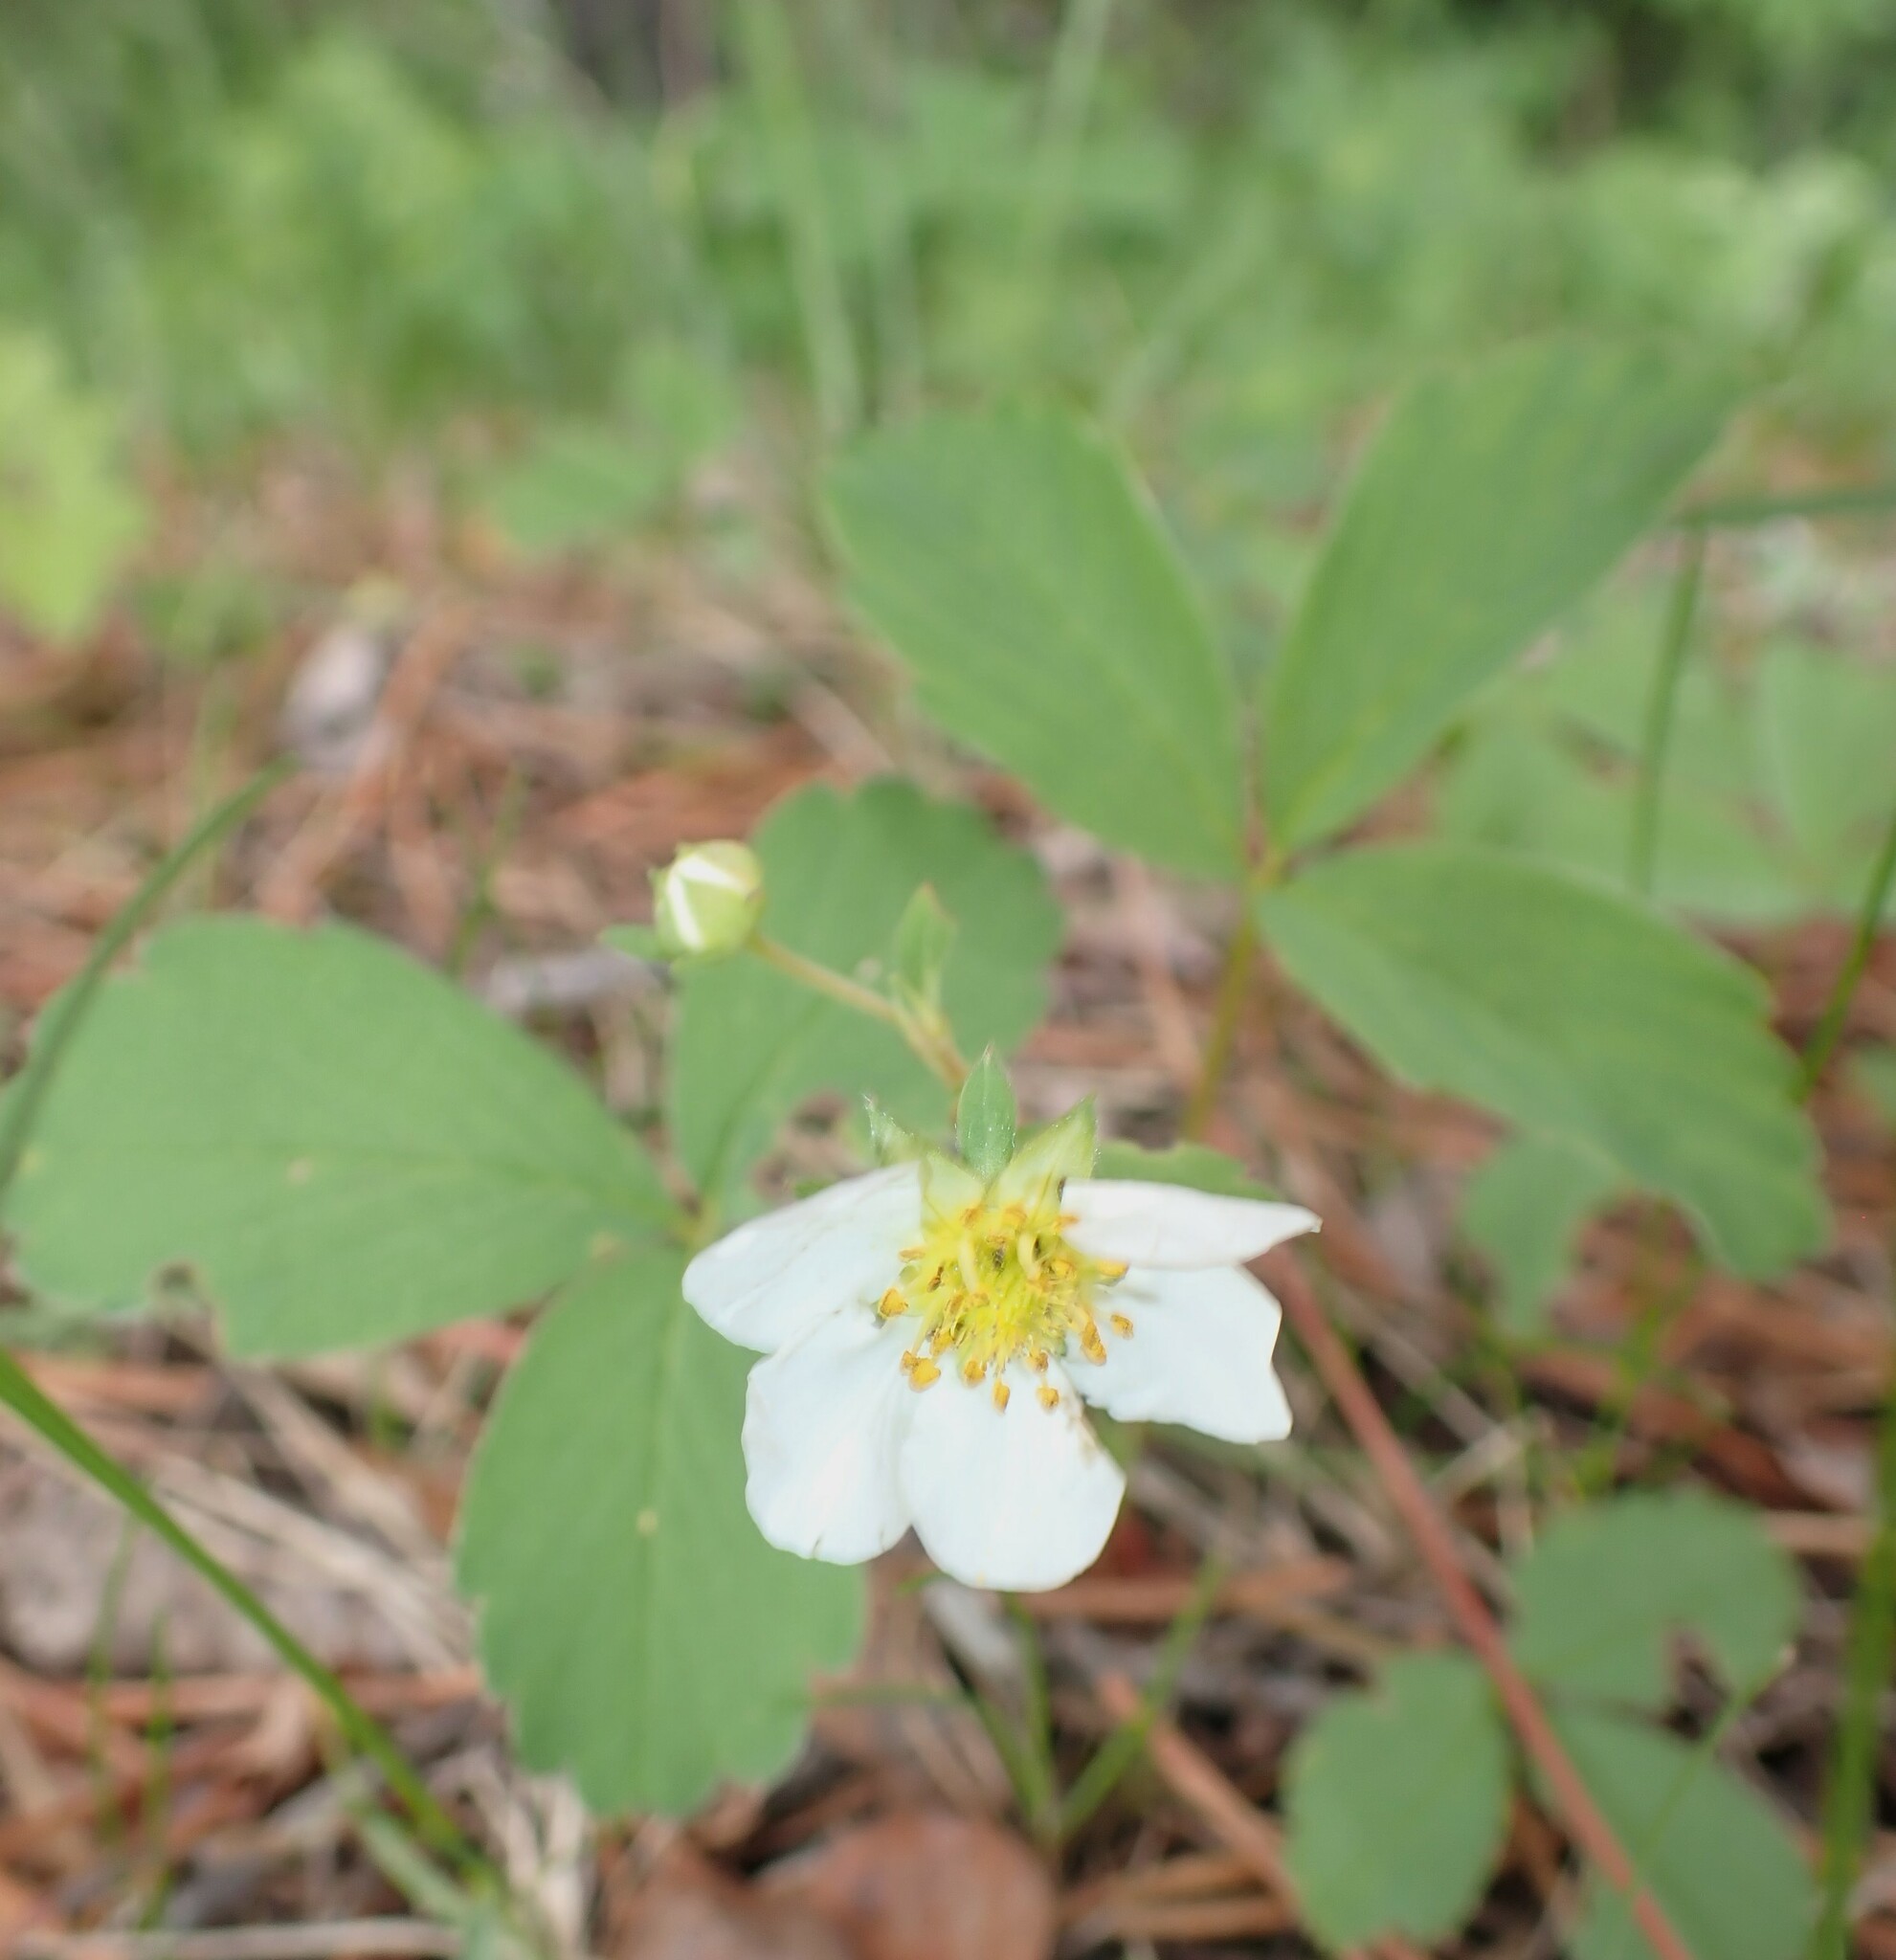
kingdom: Plantae
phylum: Tracheophyta
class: Magnoliopsida
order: Rosales
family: Rosaceae
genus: Fragaria
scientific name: Fragaria virginiana
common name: Thickleaved wild strawberry
